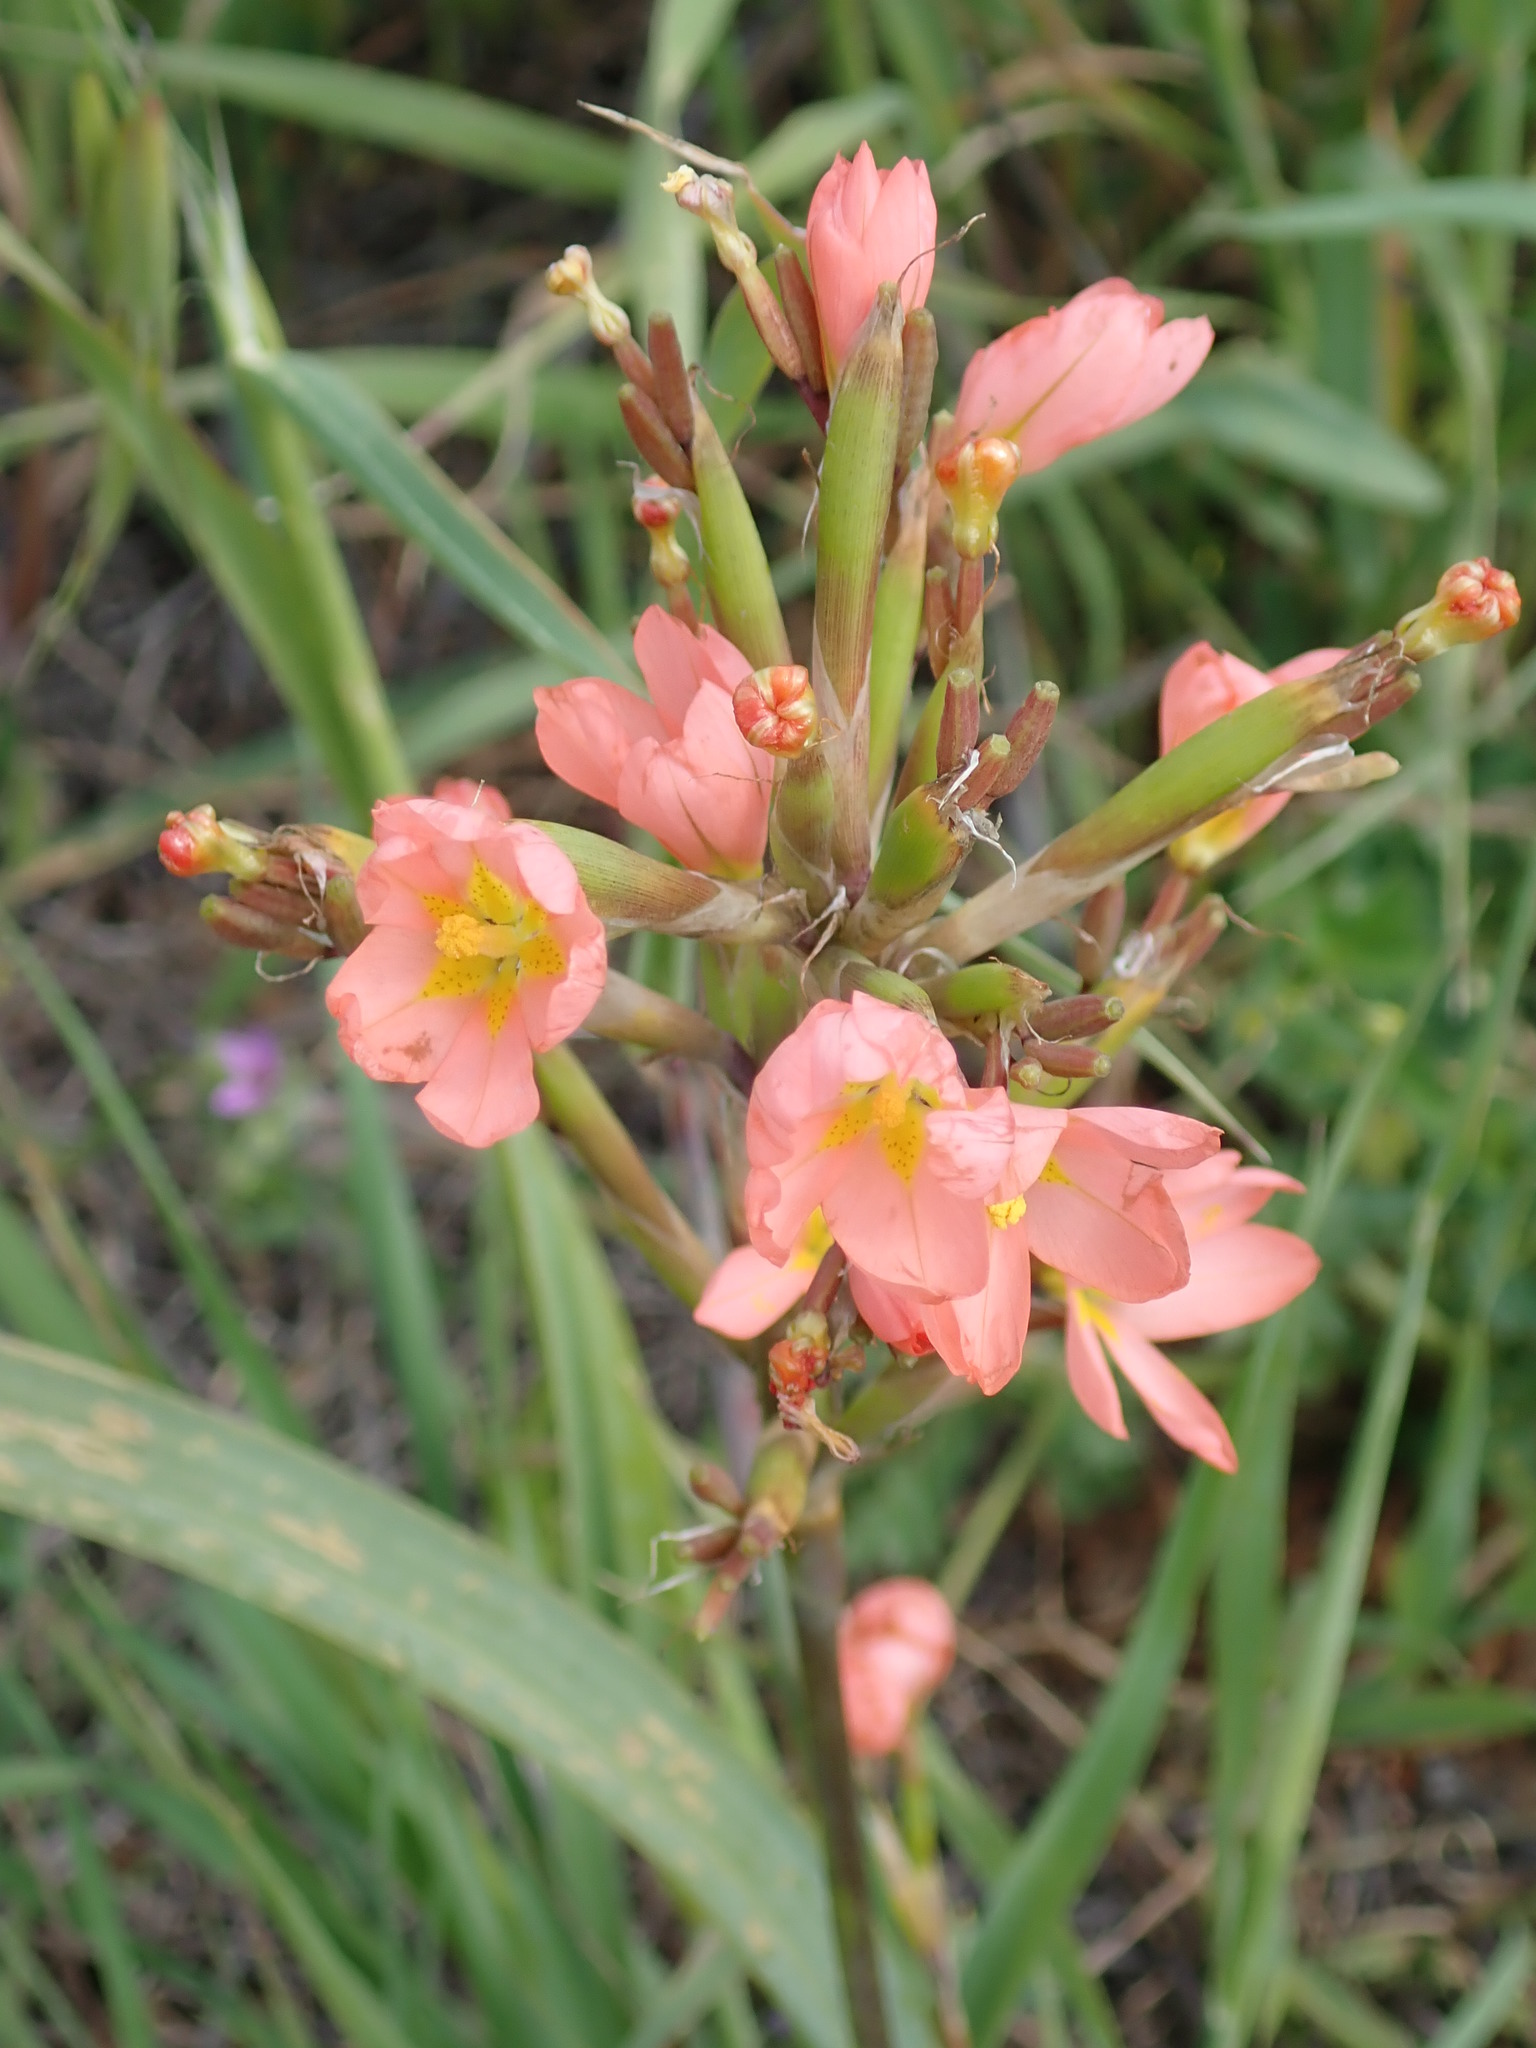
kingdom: Plantae
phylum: Tracheophyta
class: Liliopsida
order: Asparagales
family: Iridaceae
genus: Moraea
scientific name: Moraea miniata
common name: Two-leaf cape-tulip
